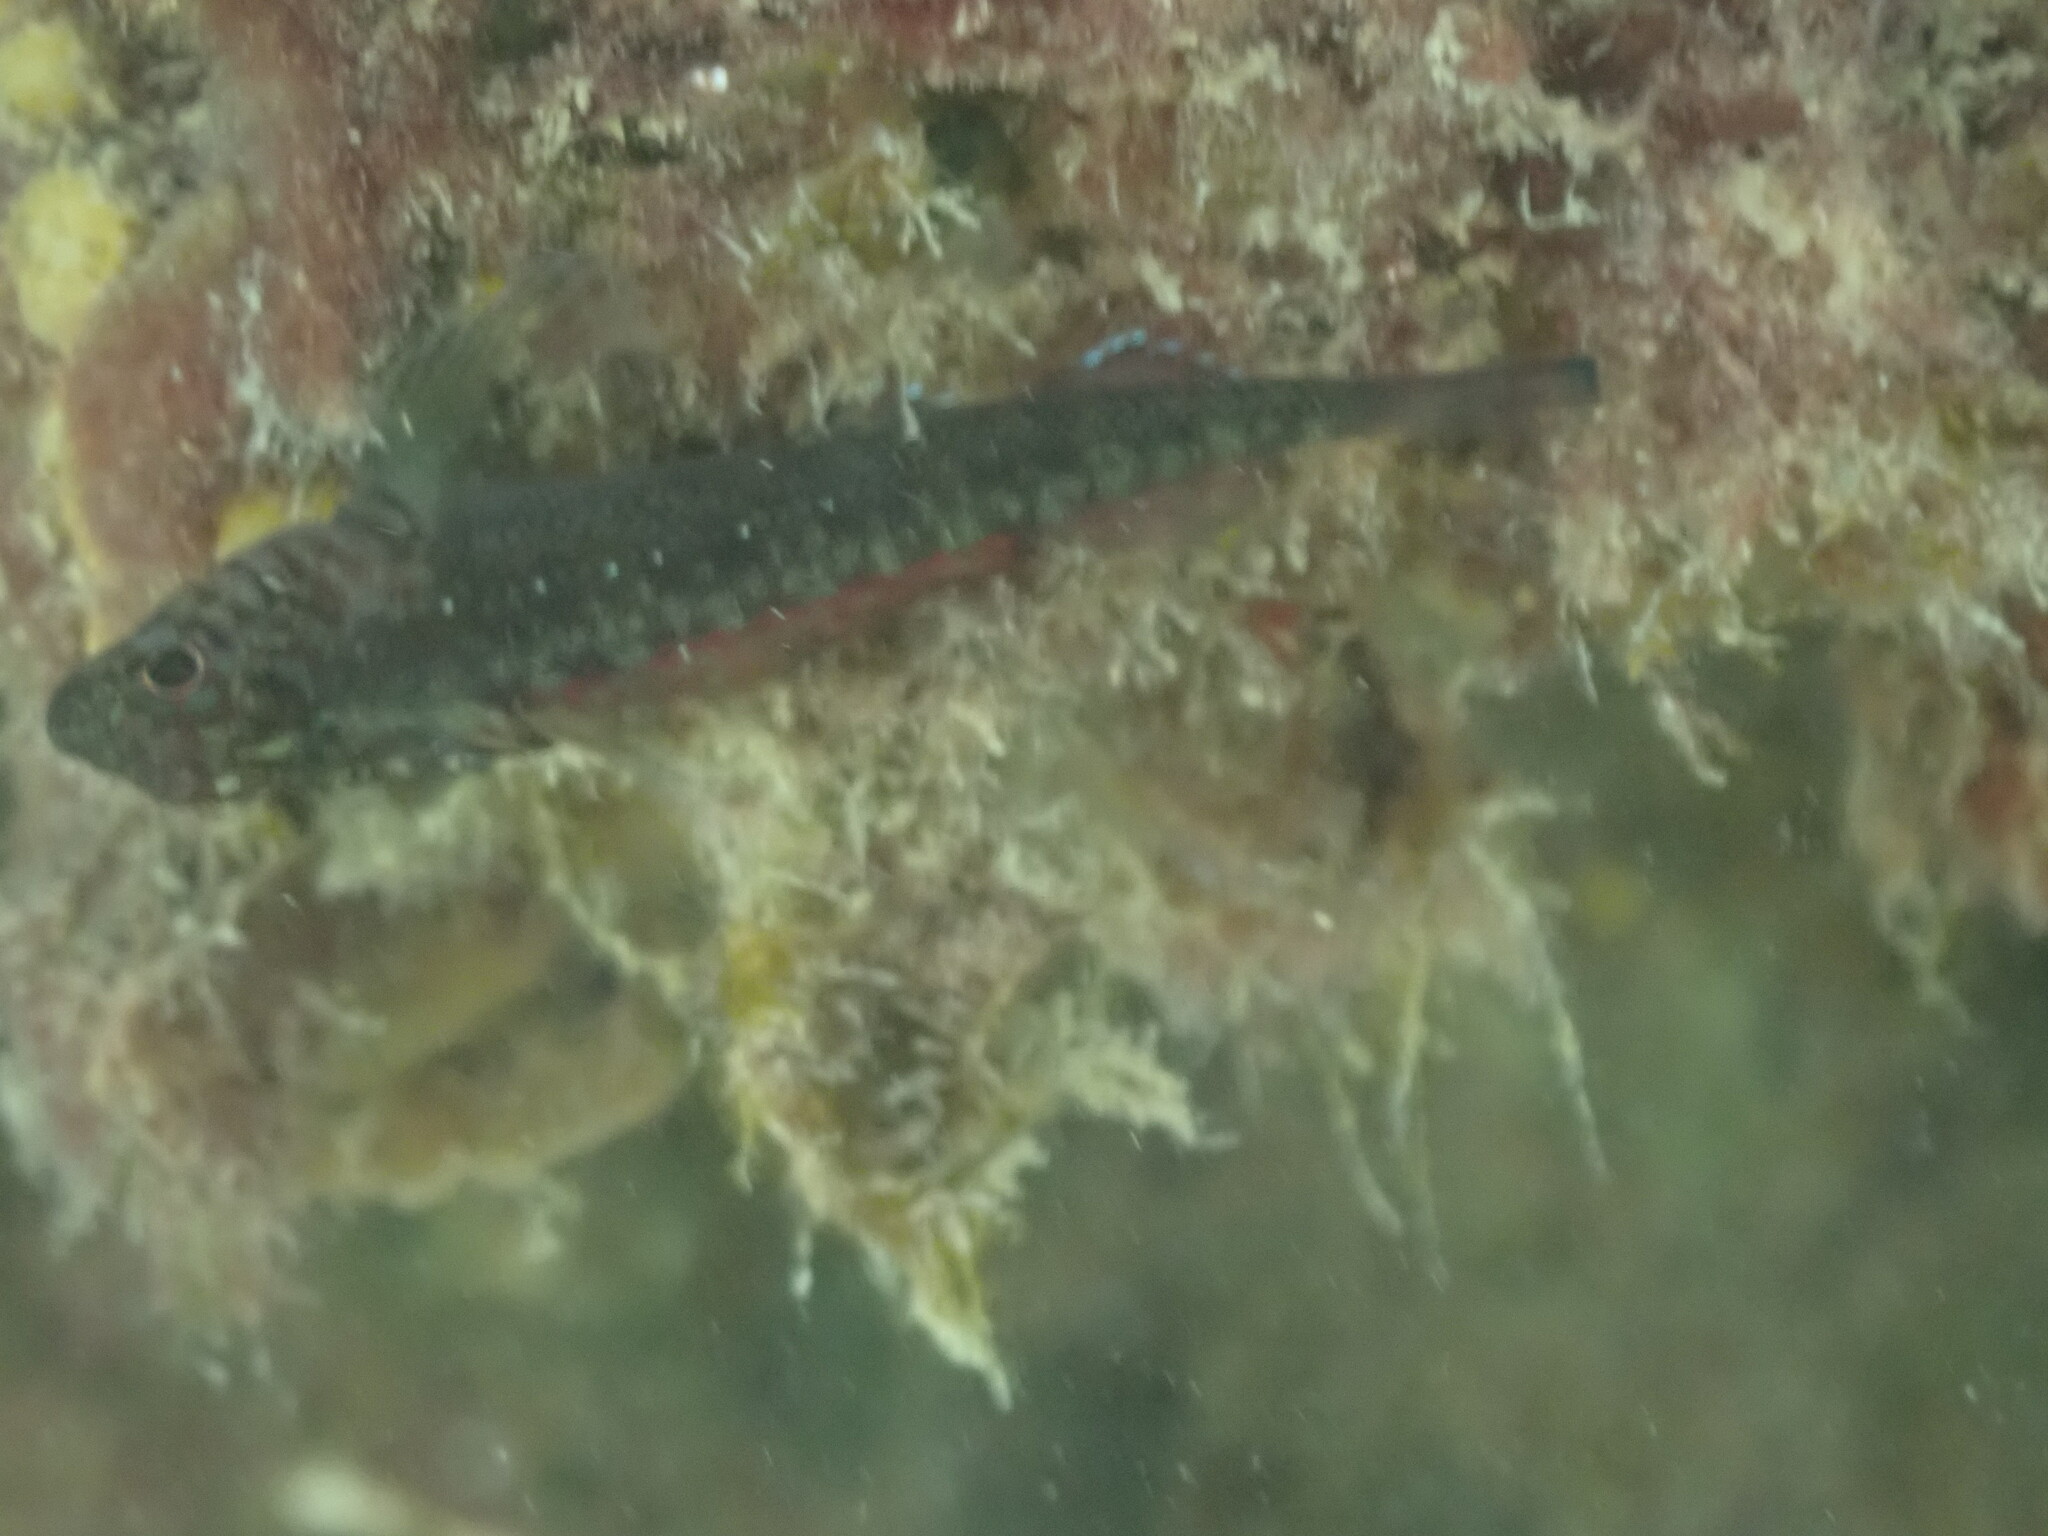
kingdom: Animalia
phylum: Chordata
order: Perciformes
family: Tripterygiidae
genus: Forsterygion
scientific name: Forsterygion lapillum
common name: Common triplefin
